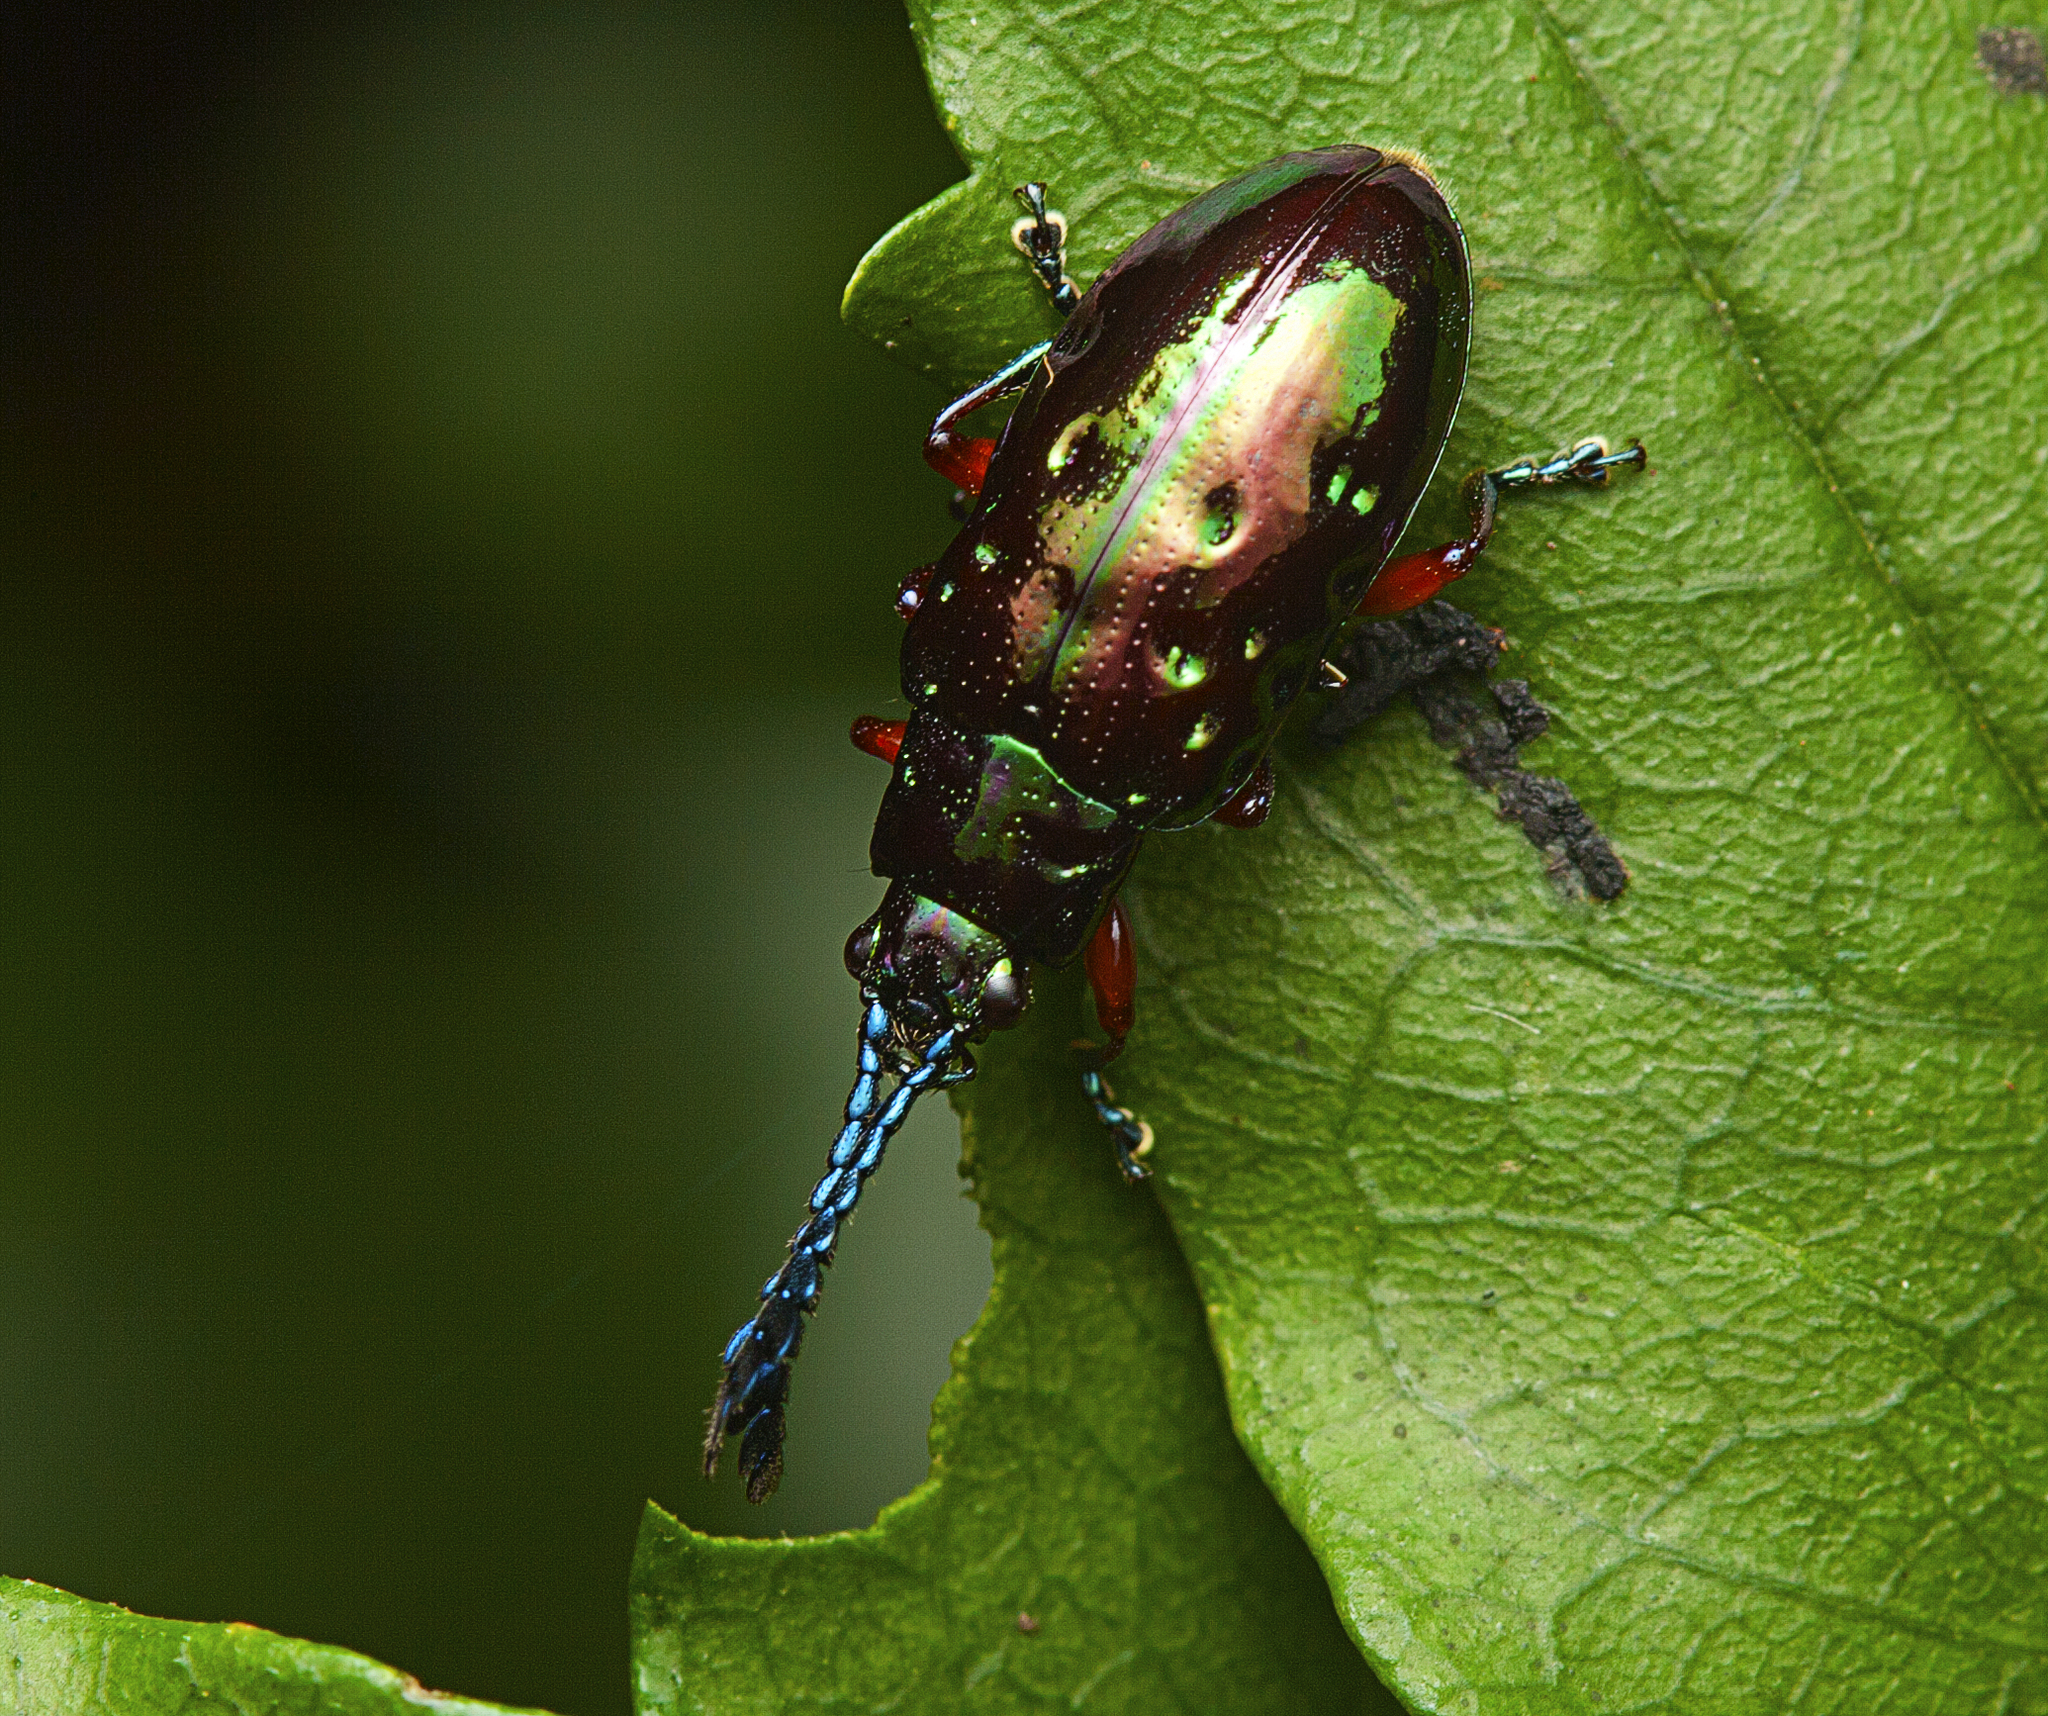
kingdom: Animalia
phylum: Arthropoda
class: Insecta
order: Coleoptera
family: Chrysomelidae
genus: Johannica
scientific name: Johannica gemellata
